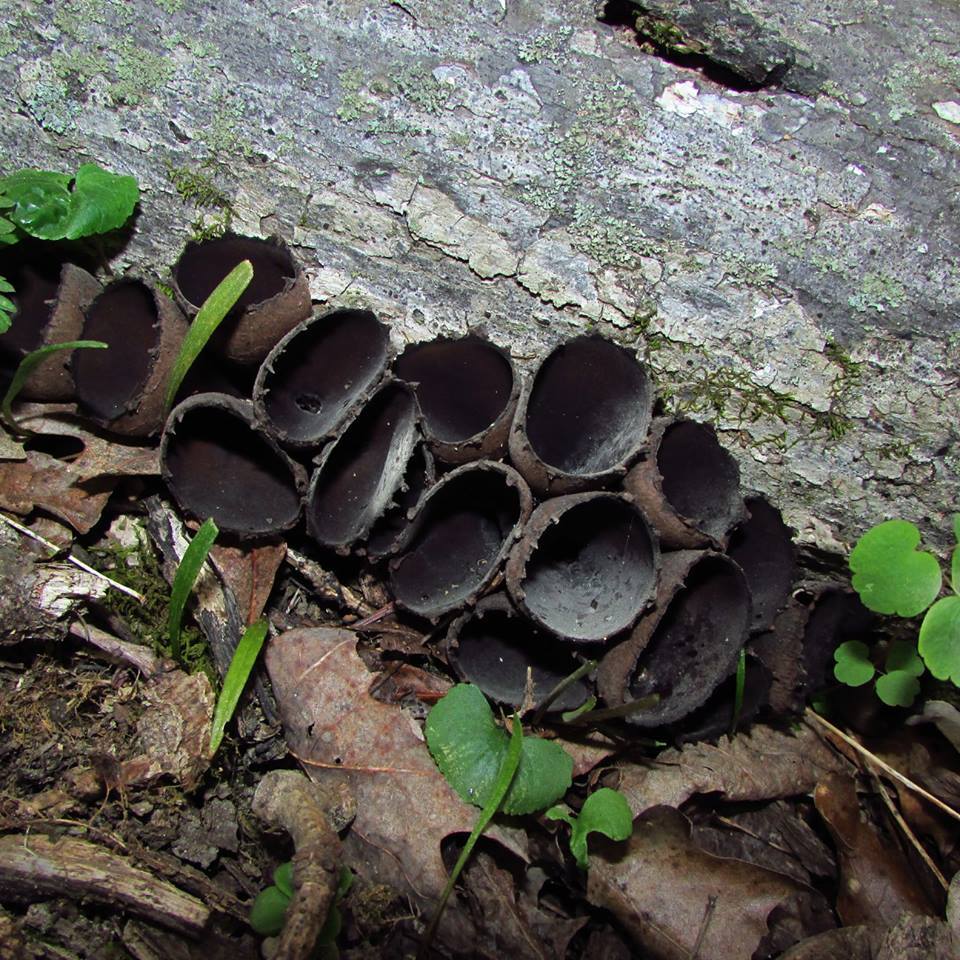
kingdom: Fungi
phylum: Ascomycota
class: Pezizomycetes
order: Pezizales
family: Sarcosomataceae
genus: Urnula
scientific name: Urnula craterium
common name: Devil's urn
